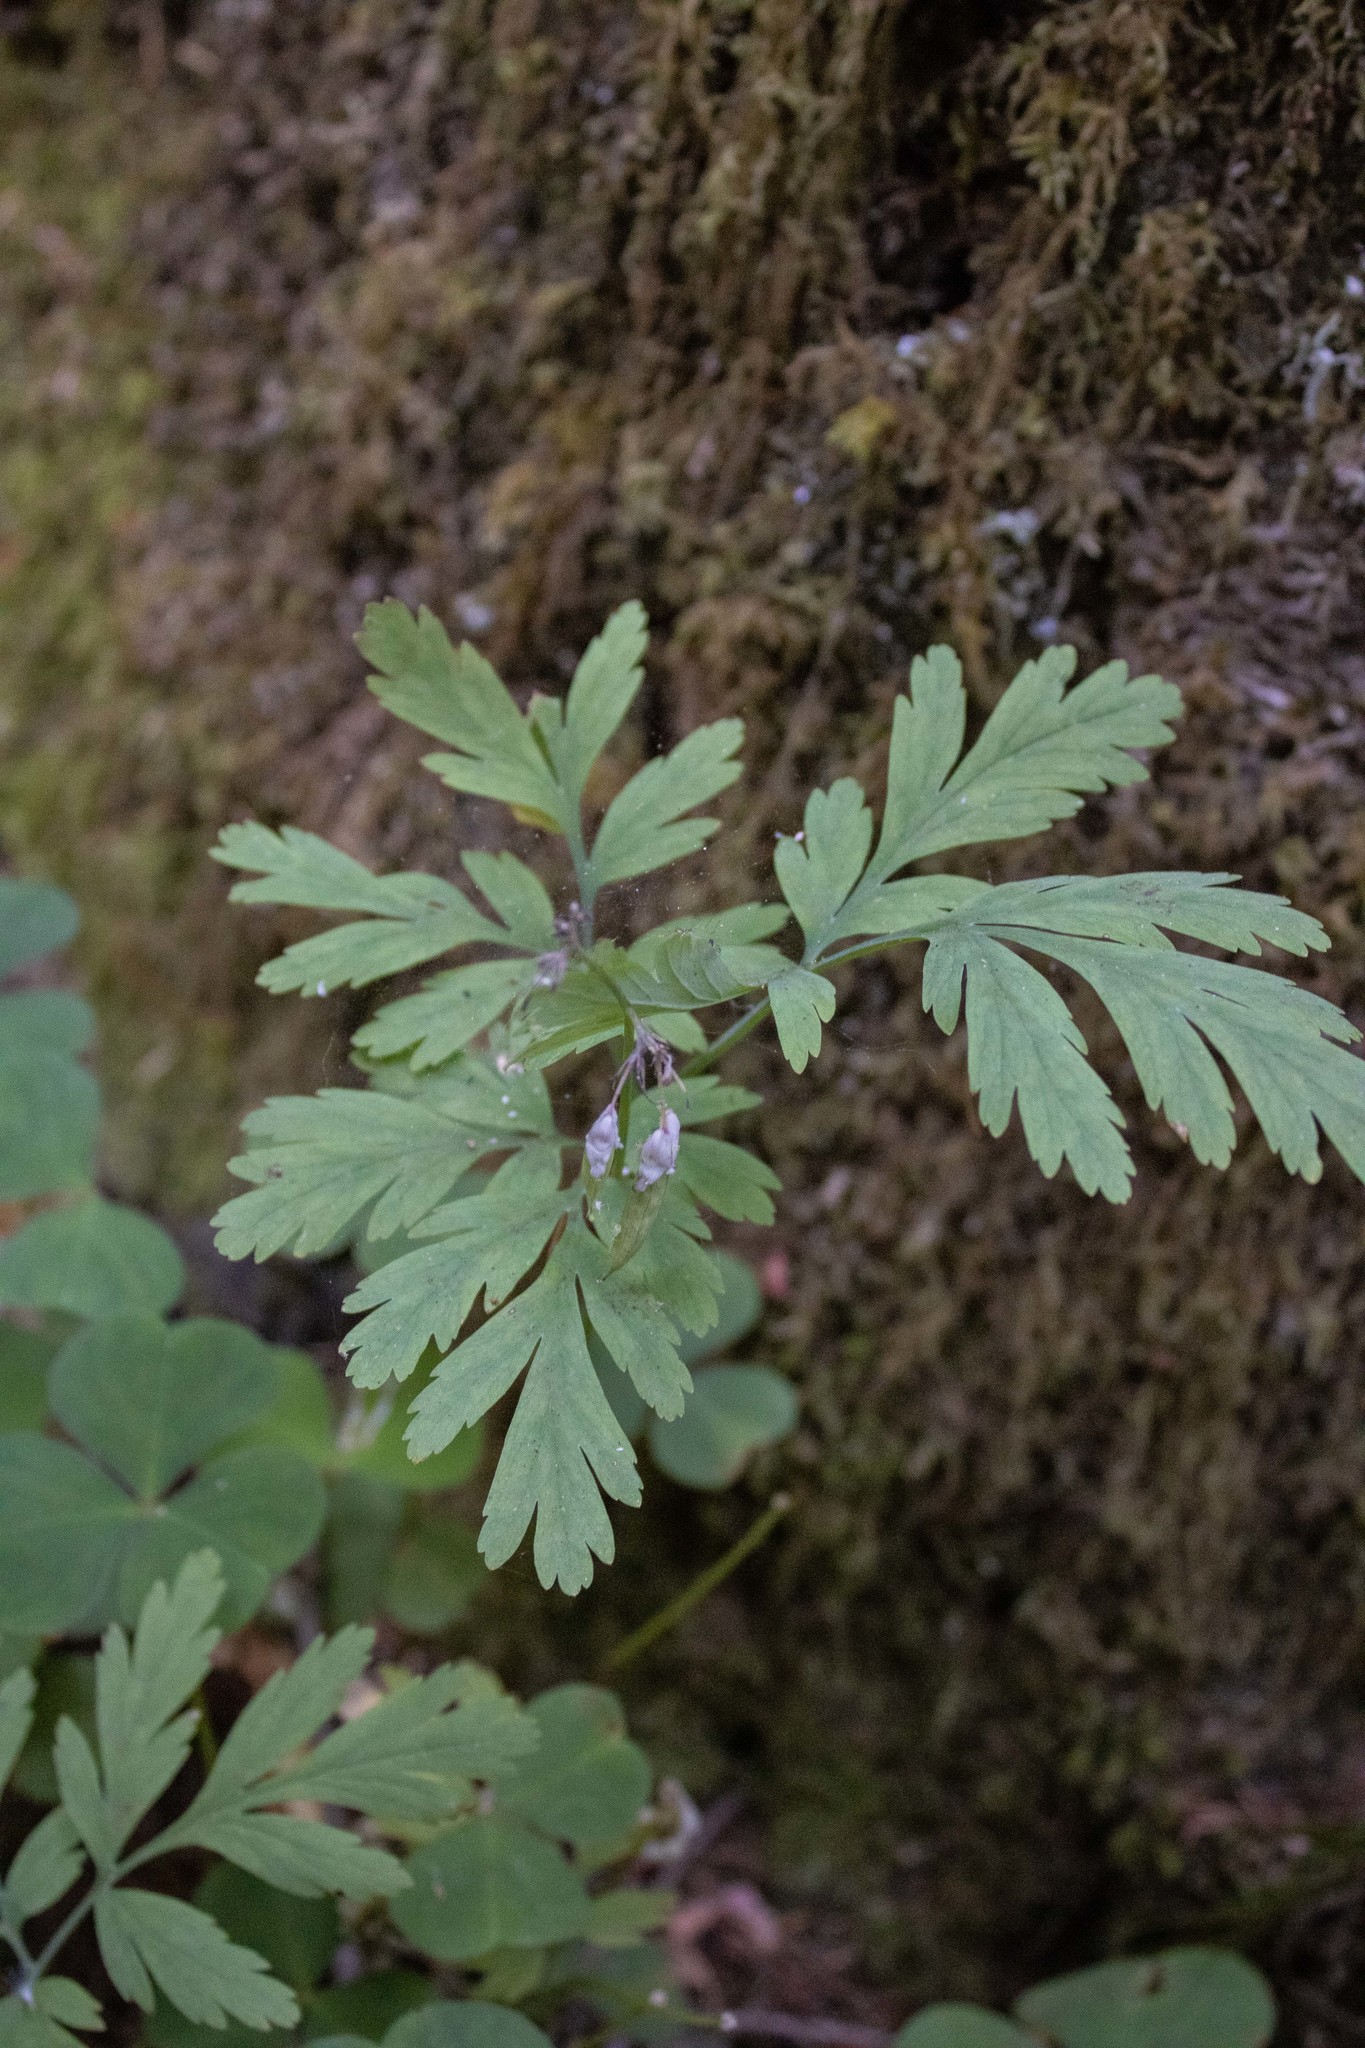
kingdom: Plantae
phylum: Tracheophyta
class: Magnoliopsida
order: Ranunculales
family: Papaveraceae
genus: Dicentra
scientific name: Dicentra formosa
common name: Bleeding-heart
